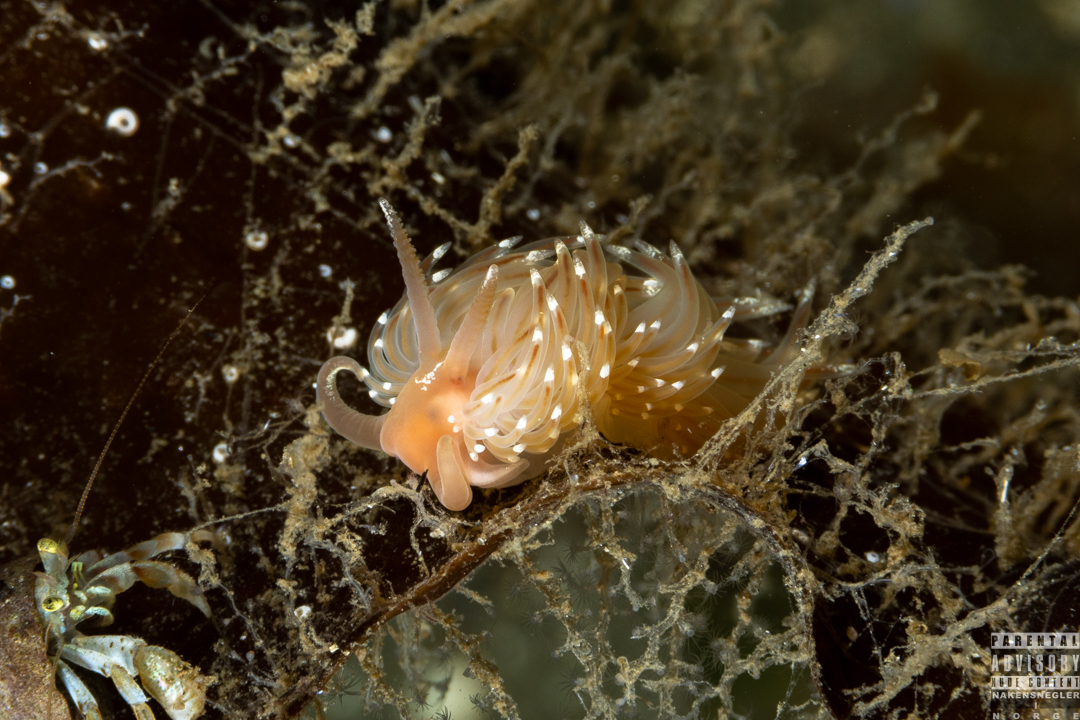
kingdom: Animalia
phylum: Mollusca
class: Gastropoda
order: Nudibranchia
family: Facelinidae
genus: Facelina
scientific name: Facelina bostoniensis
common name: Boston facelina
